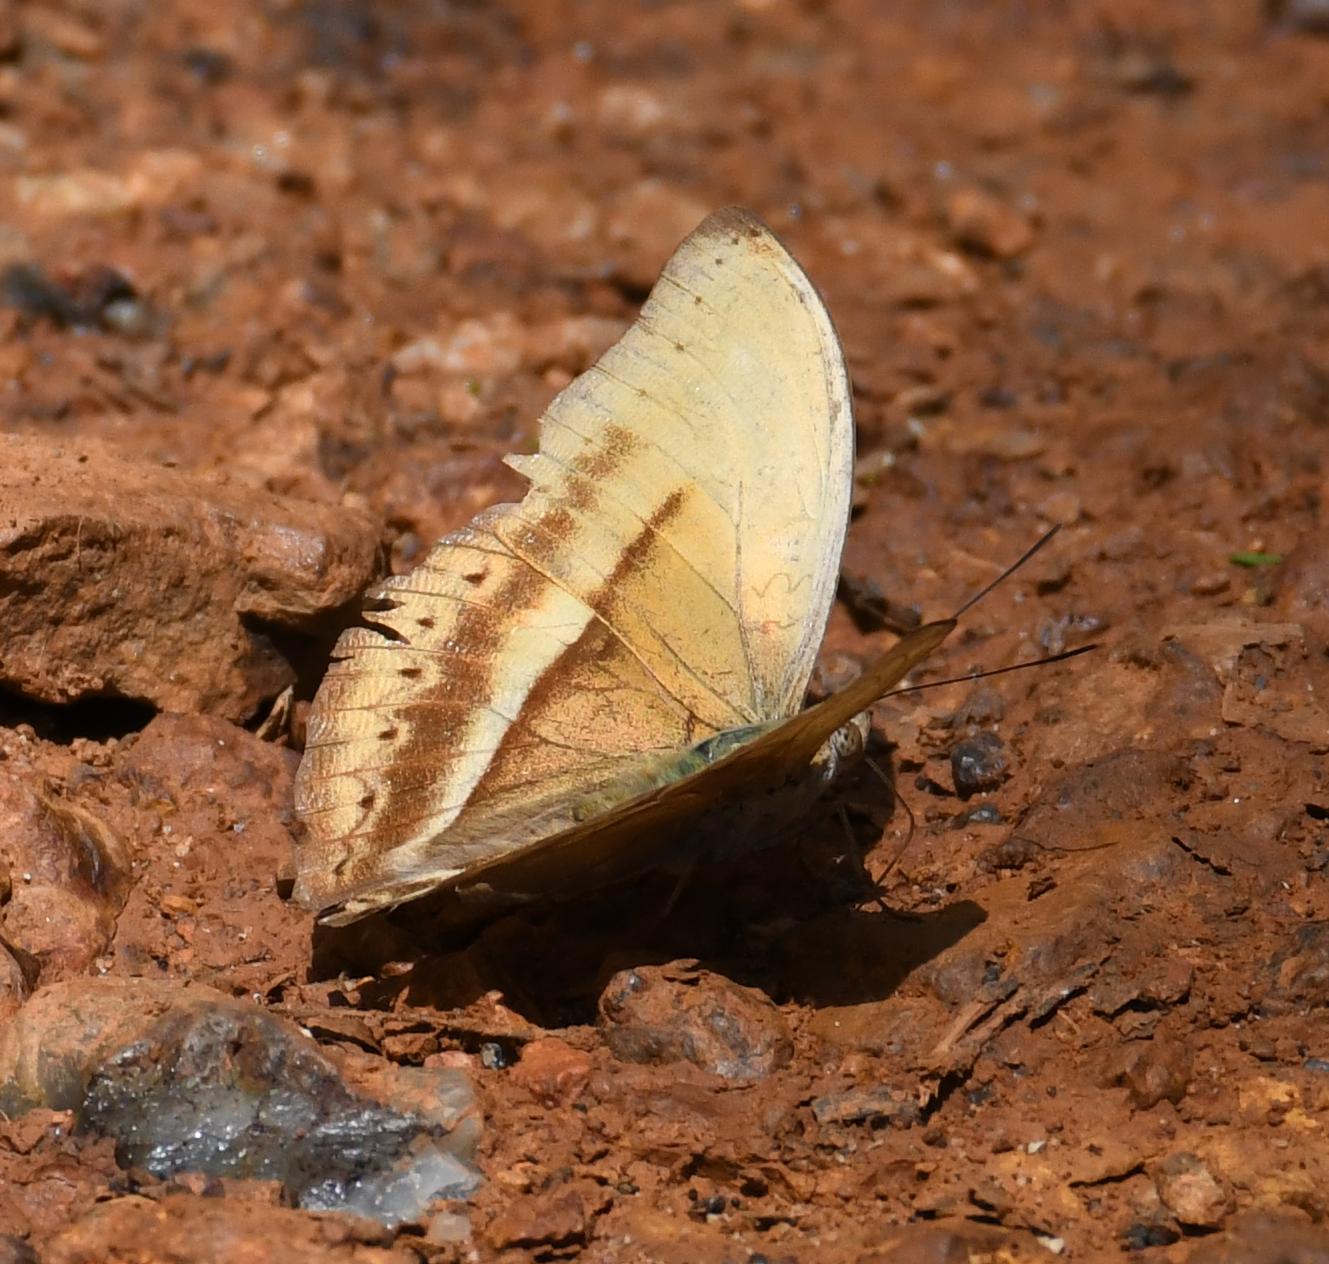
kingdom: Animalia
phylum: Arthropoda
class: Insecta
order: Lepidoptera
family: Nymphalidae
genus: Cymothoe
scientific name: Cymothoe egesta
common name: Common yellow glider
